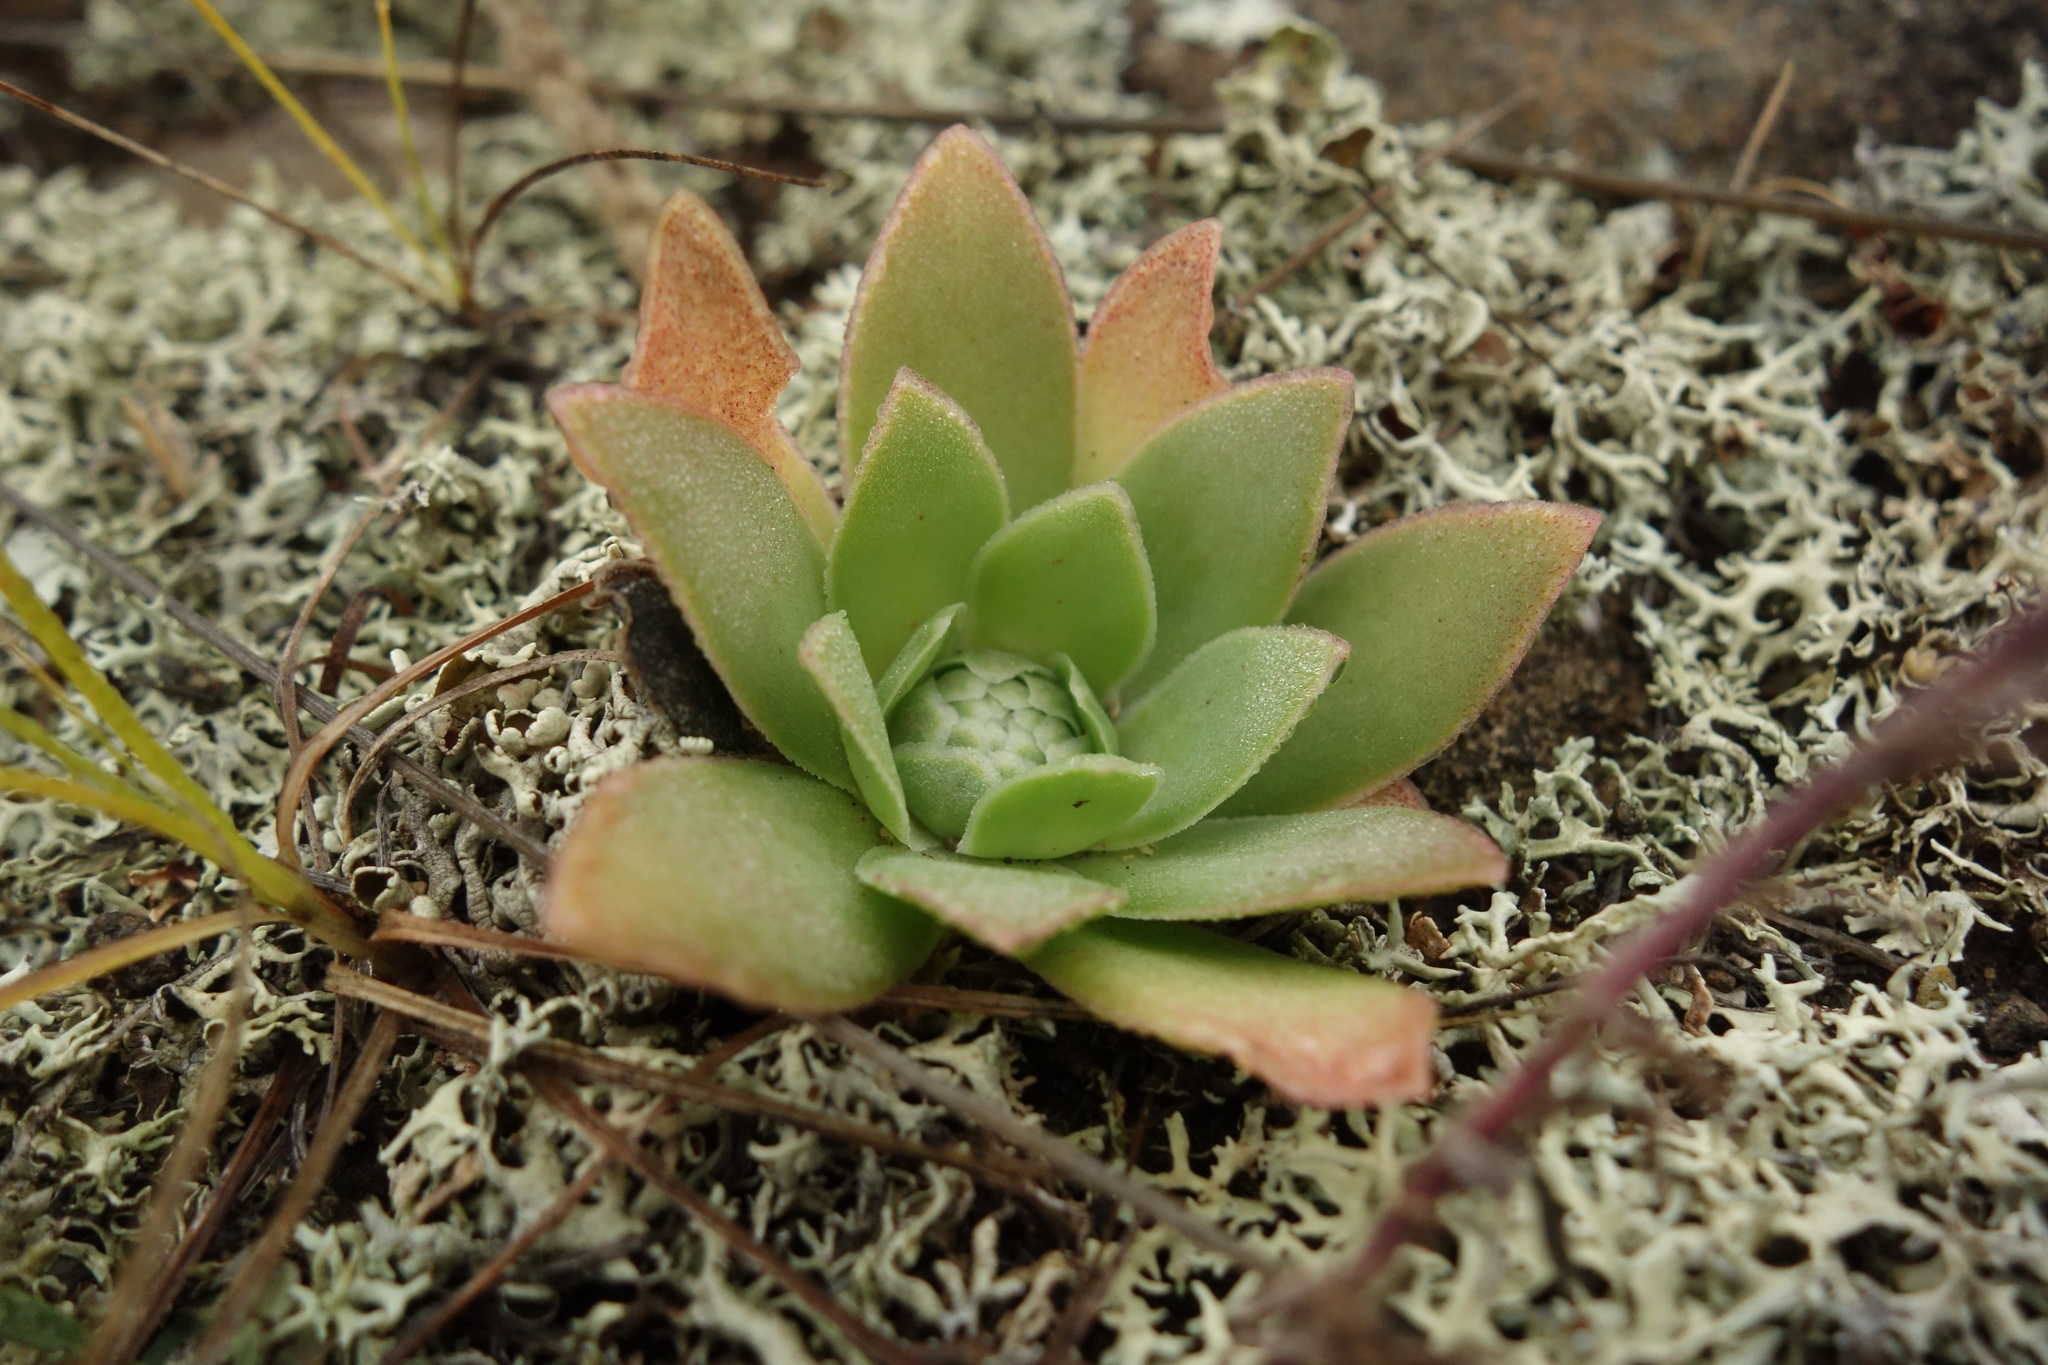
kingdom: Plantae
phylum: Tracheophyta
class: Magnoliopsida
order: Saxifragales
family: Crassulaceae
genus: Orostachys
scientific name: Orostachys malacophylla
